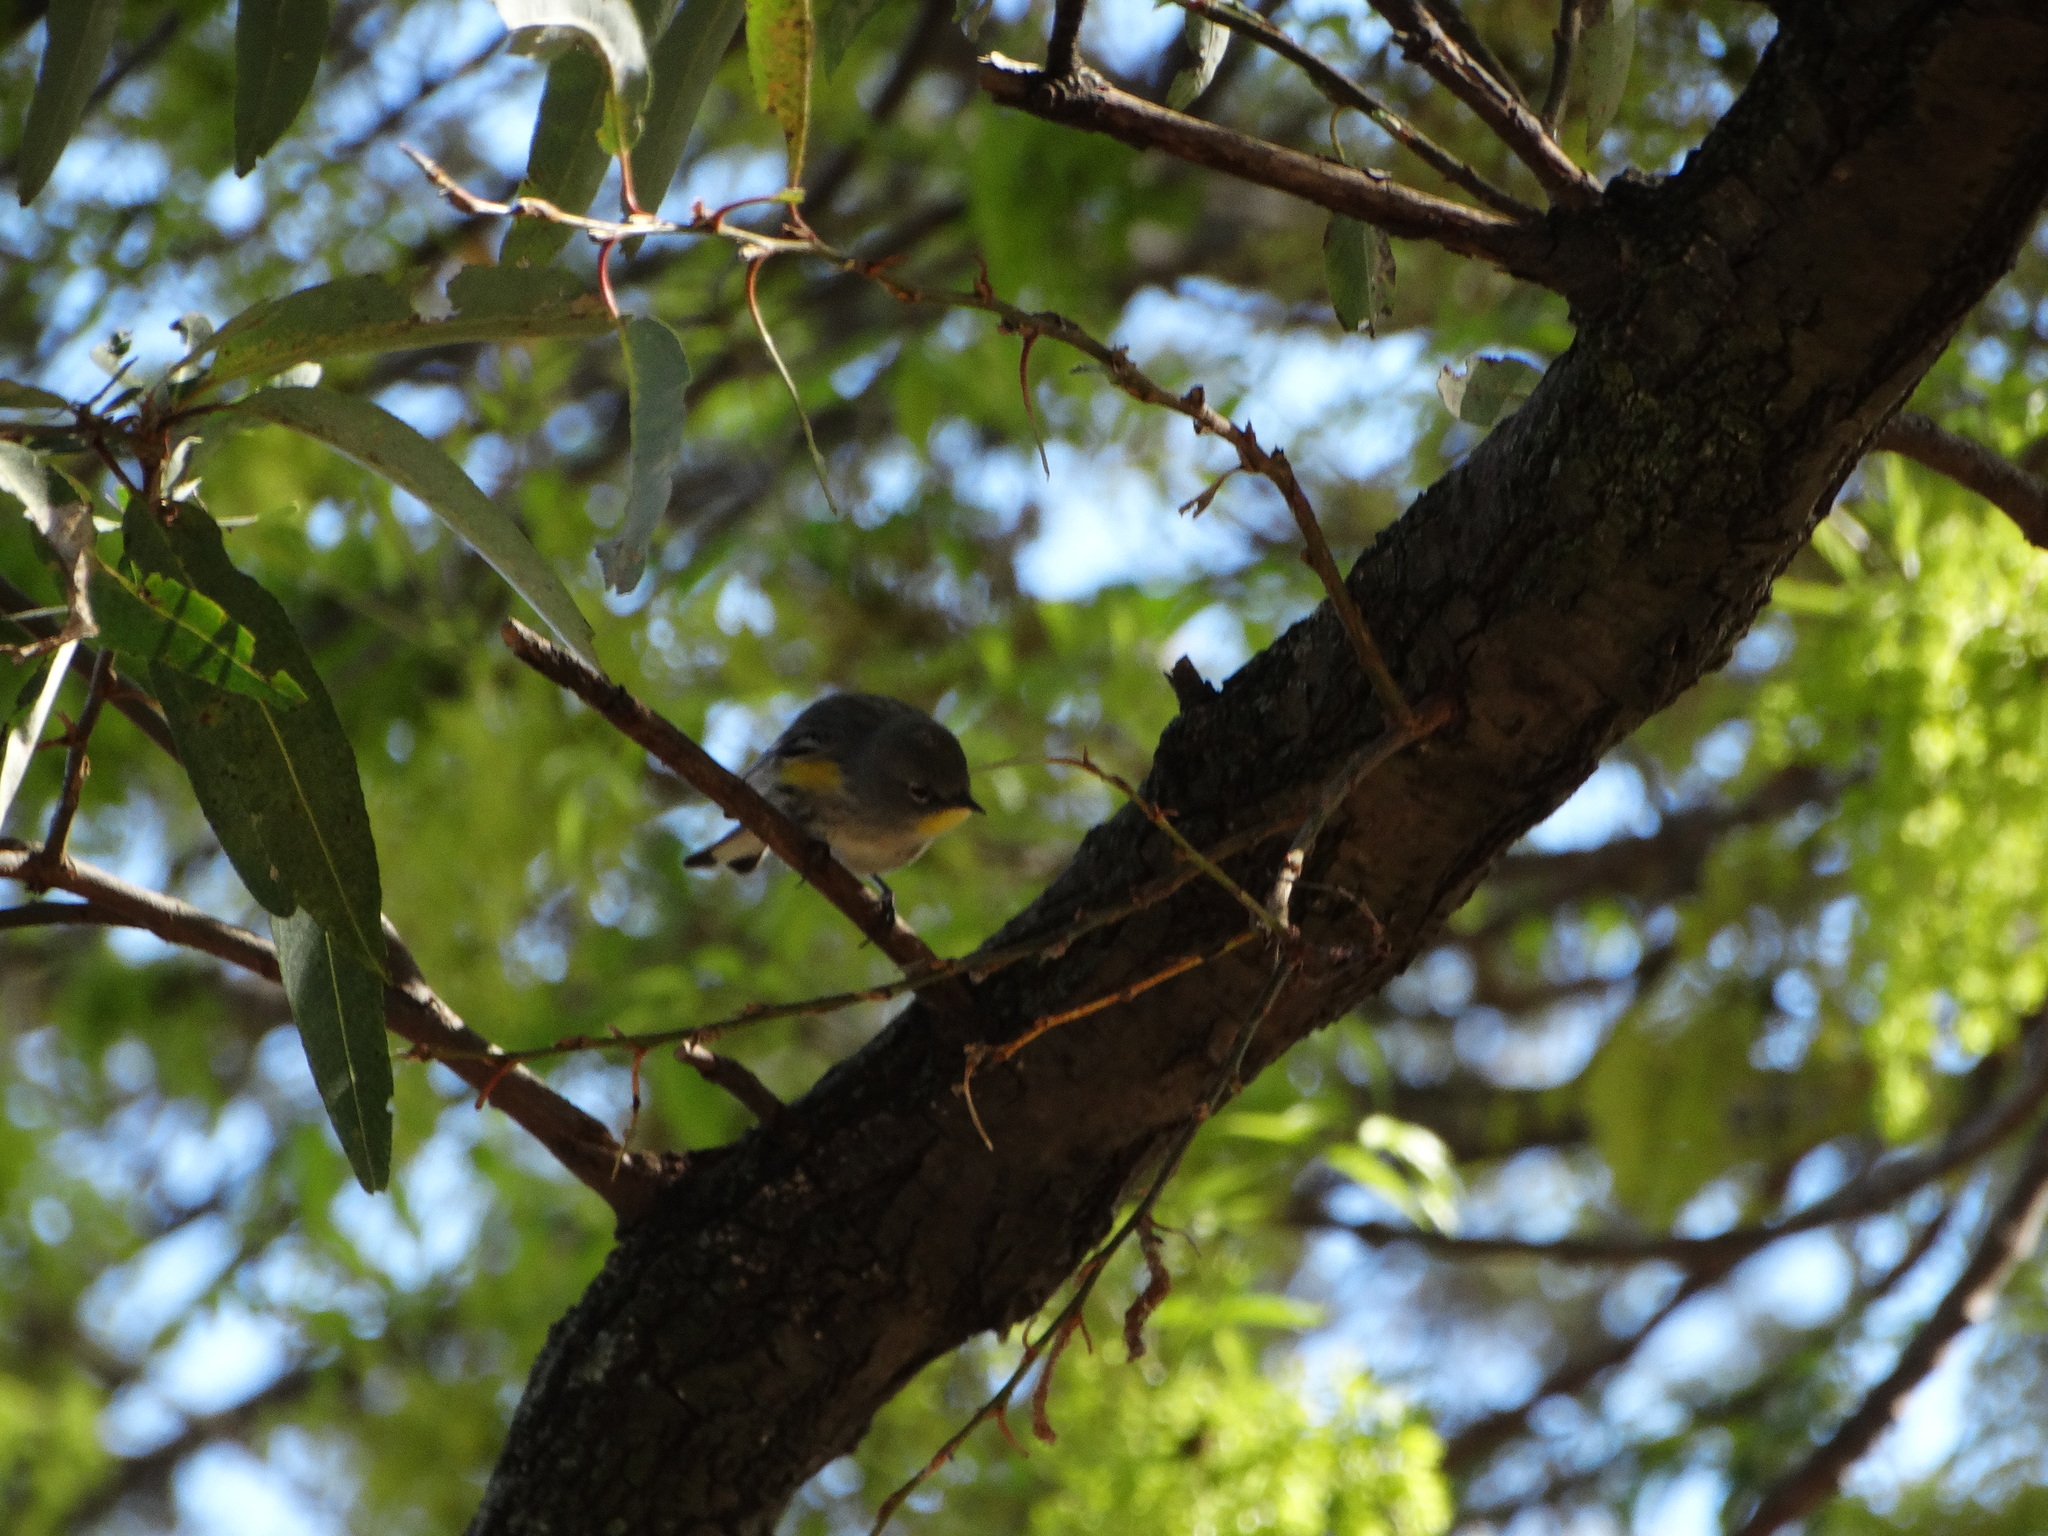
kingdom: Animalia
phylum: Chordata
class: Aves
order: Passeriformes
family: Parulidae
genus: Setophaga
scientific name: Setophaga auduboni
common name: Audubon's warbler
